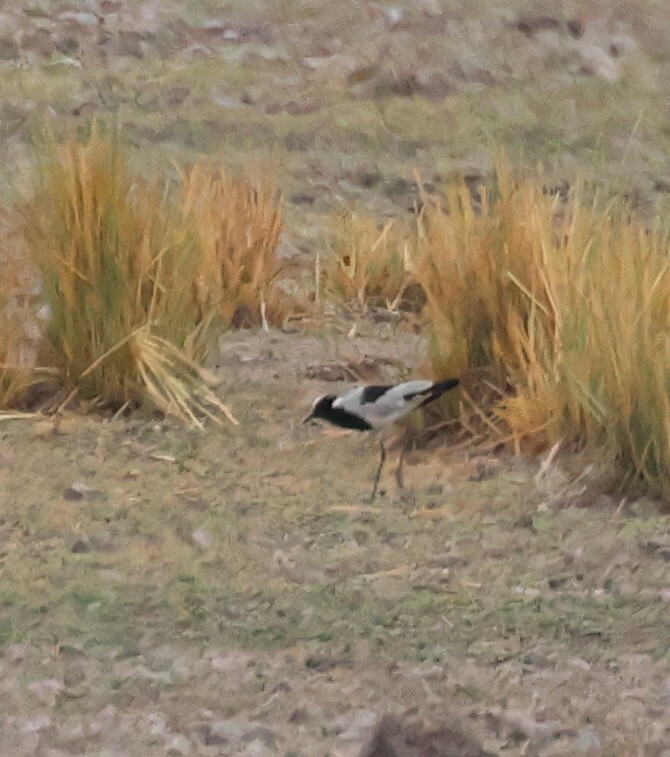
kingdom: Animalia
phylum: Chordata
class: Aves
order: Charadriiformes
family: Charadriidae
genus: Vanellus
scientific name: Vanellus armatus
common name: Blacksmith lapwing
